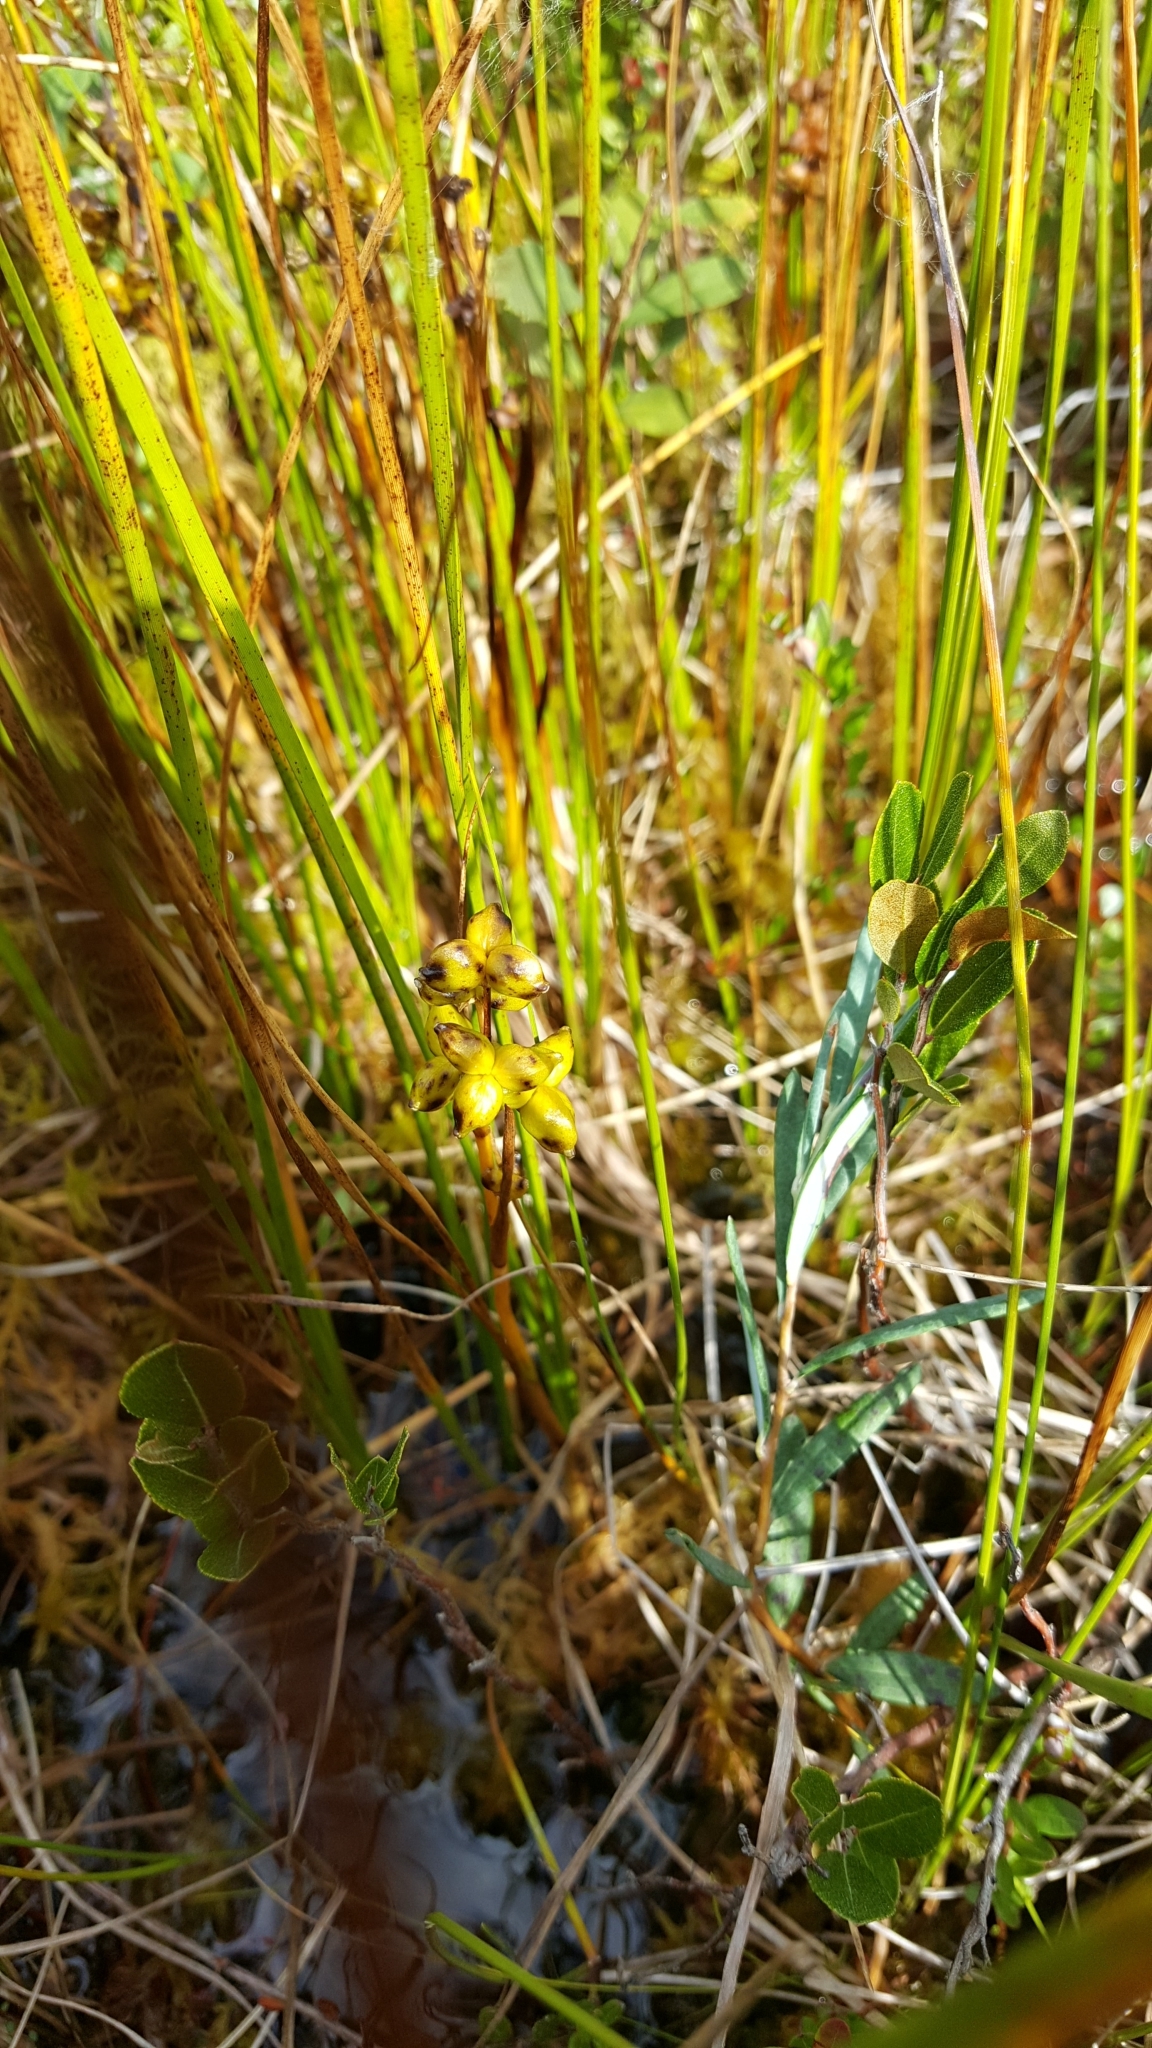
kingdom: Plantae
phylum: Tracheophyta
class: Liliopsida
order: Alismatales
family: Scheuchzeriaceae
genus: Scheuchzeria
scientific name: Scheuchzeria palustris
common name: Rannoch-rush
